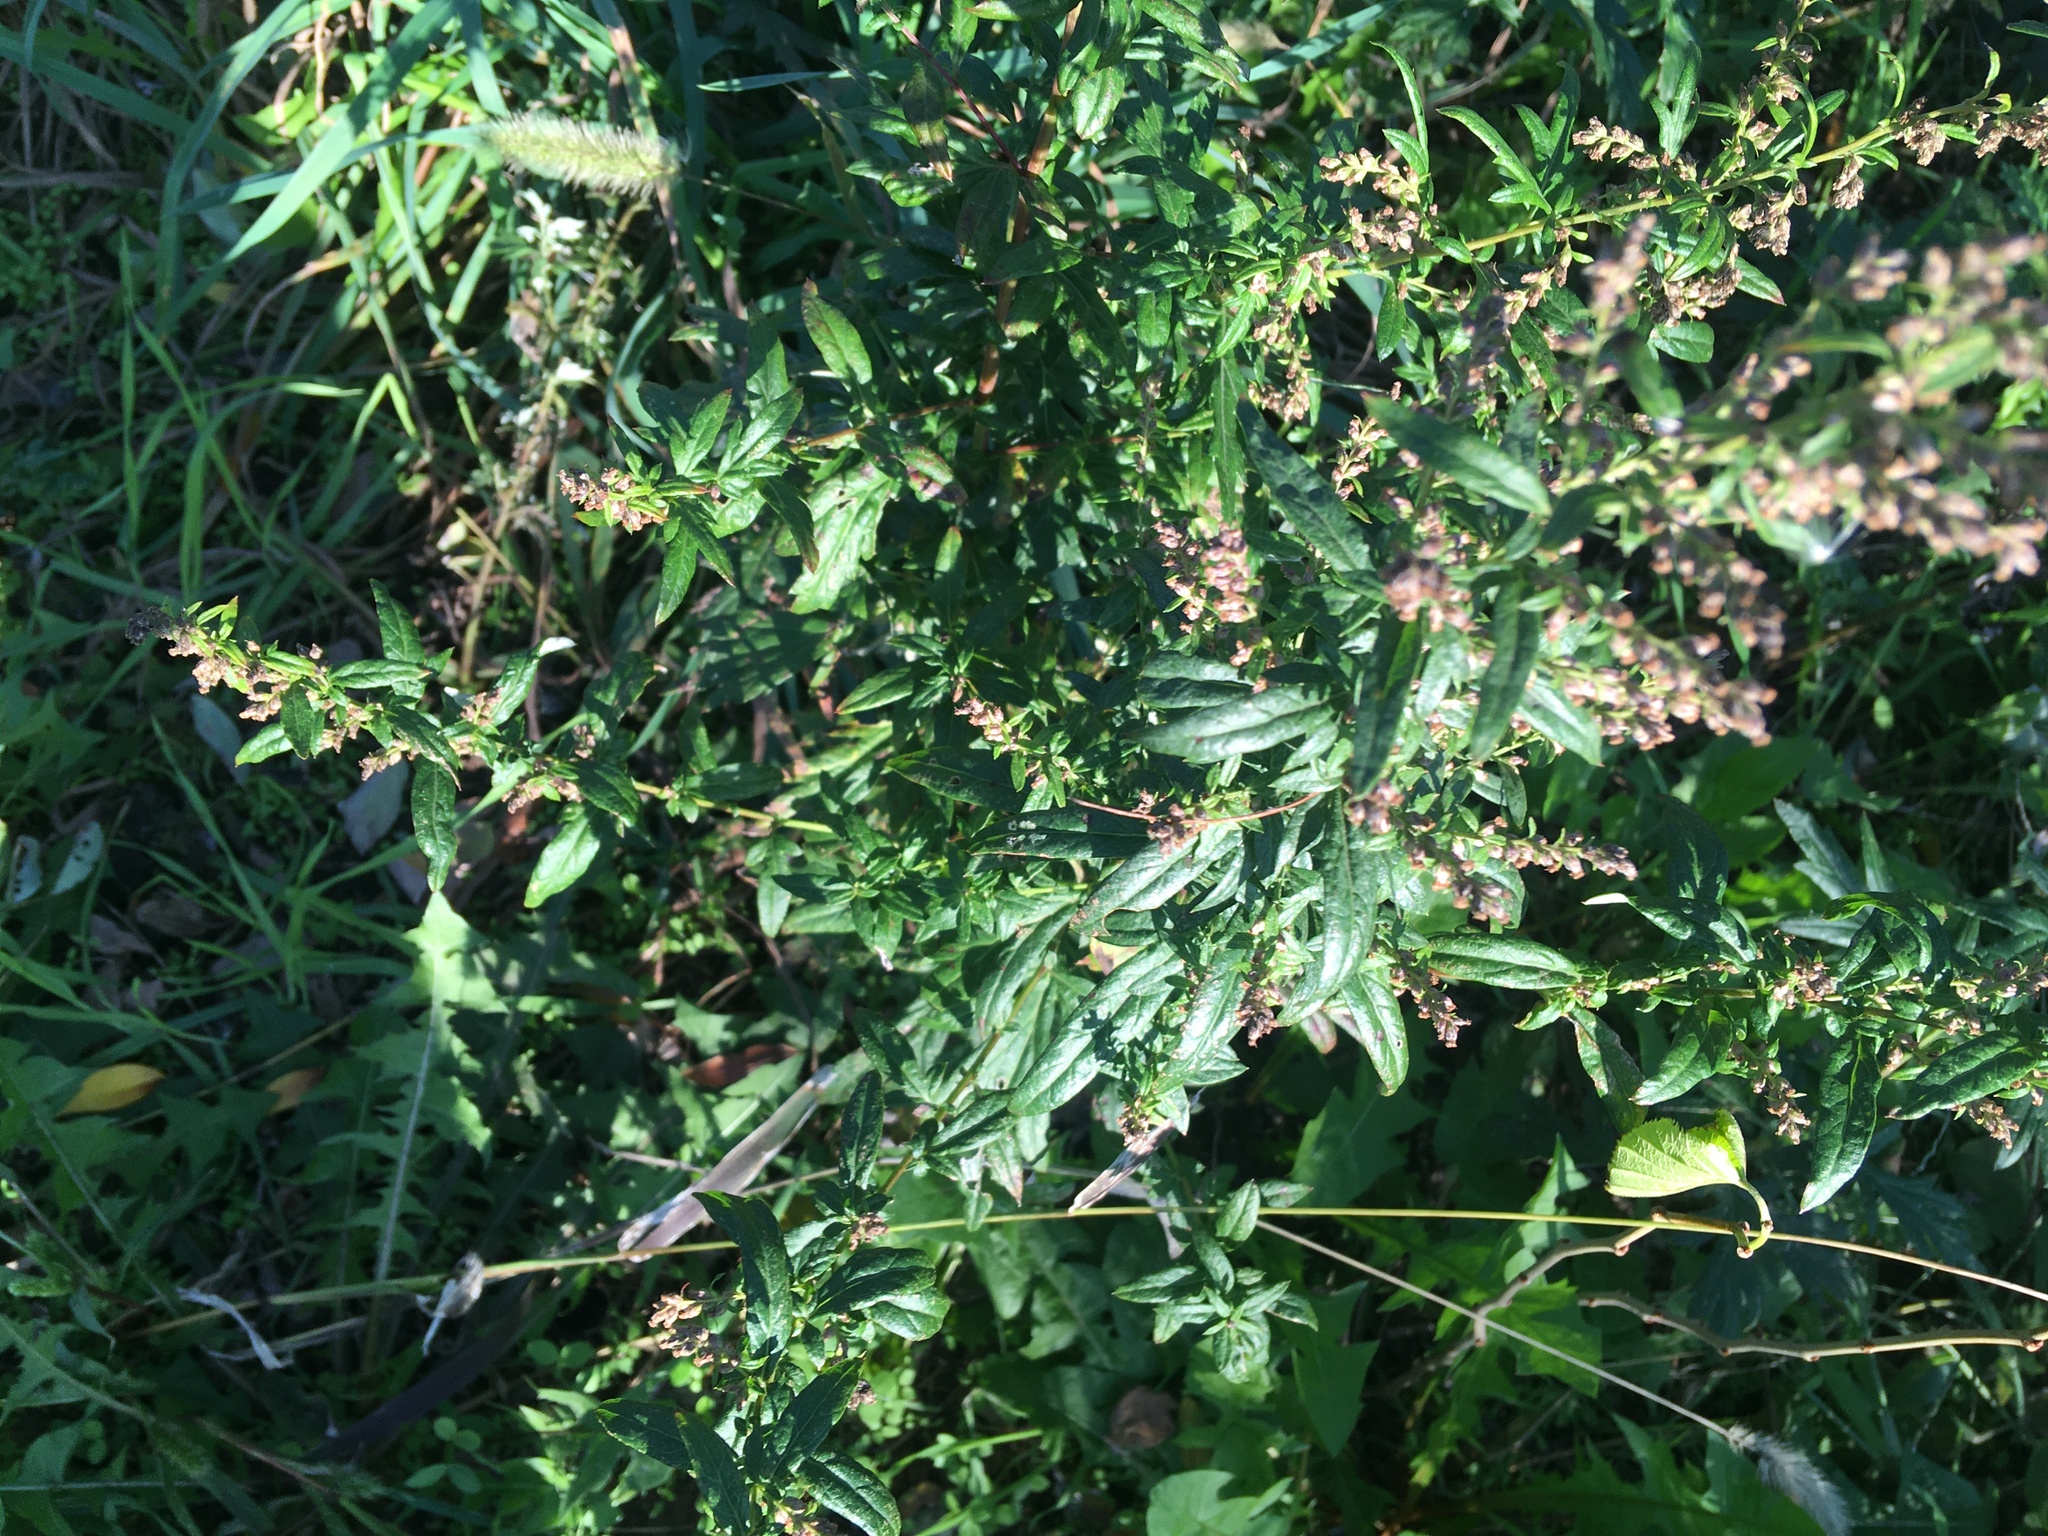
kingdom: Plantae
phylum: Tracheophyta
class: Magnoliopsida
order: Asterales
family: Asteraceae
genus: Artemisia
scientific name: Artemisia vulgaris
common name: Mugwort
